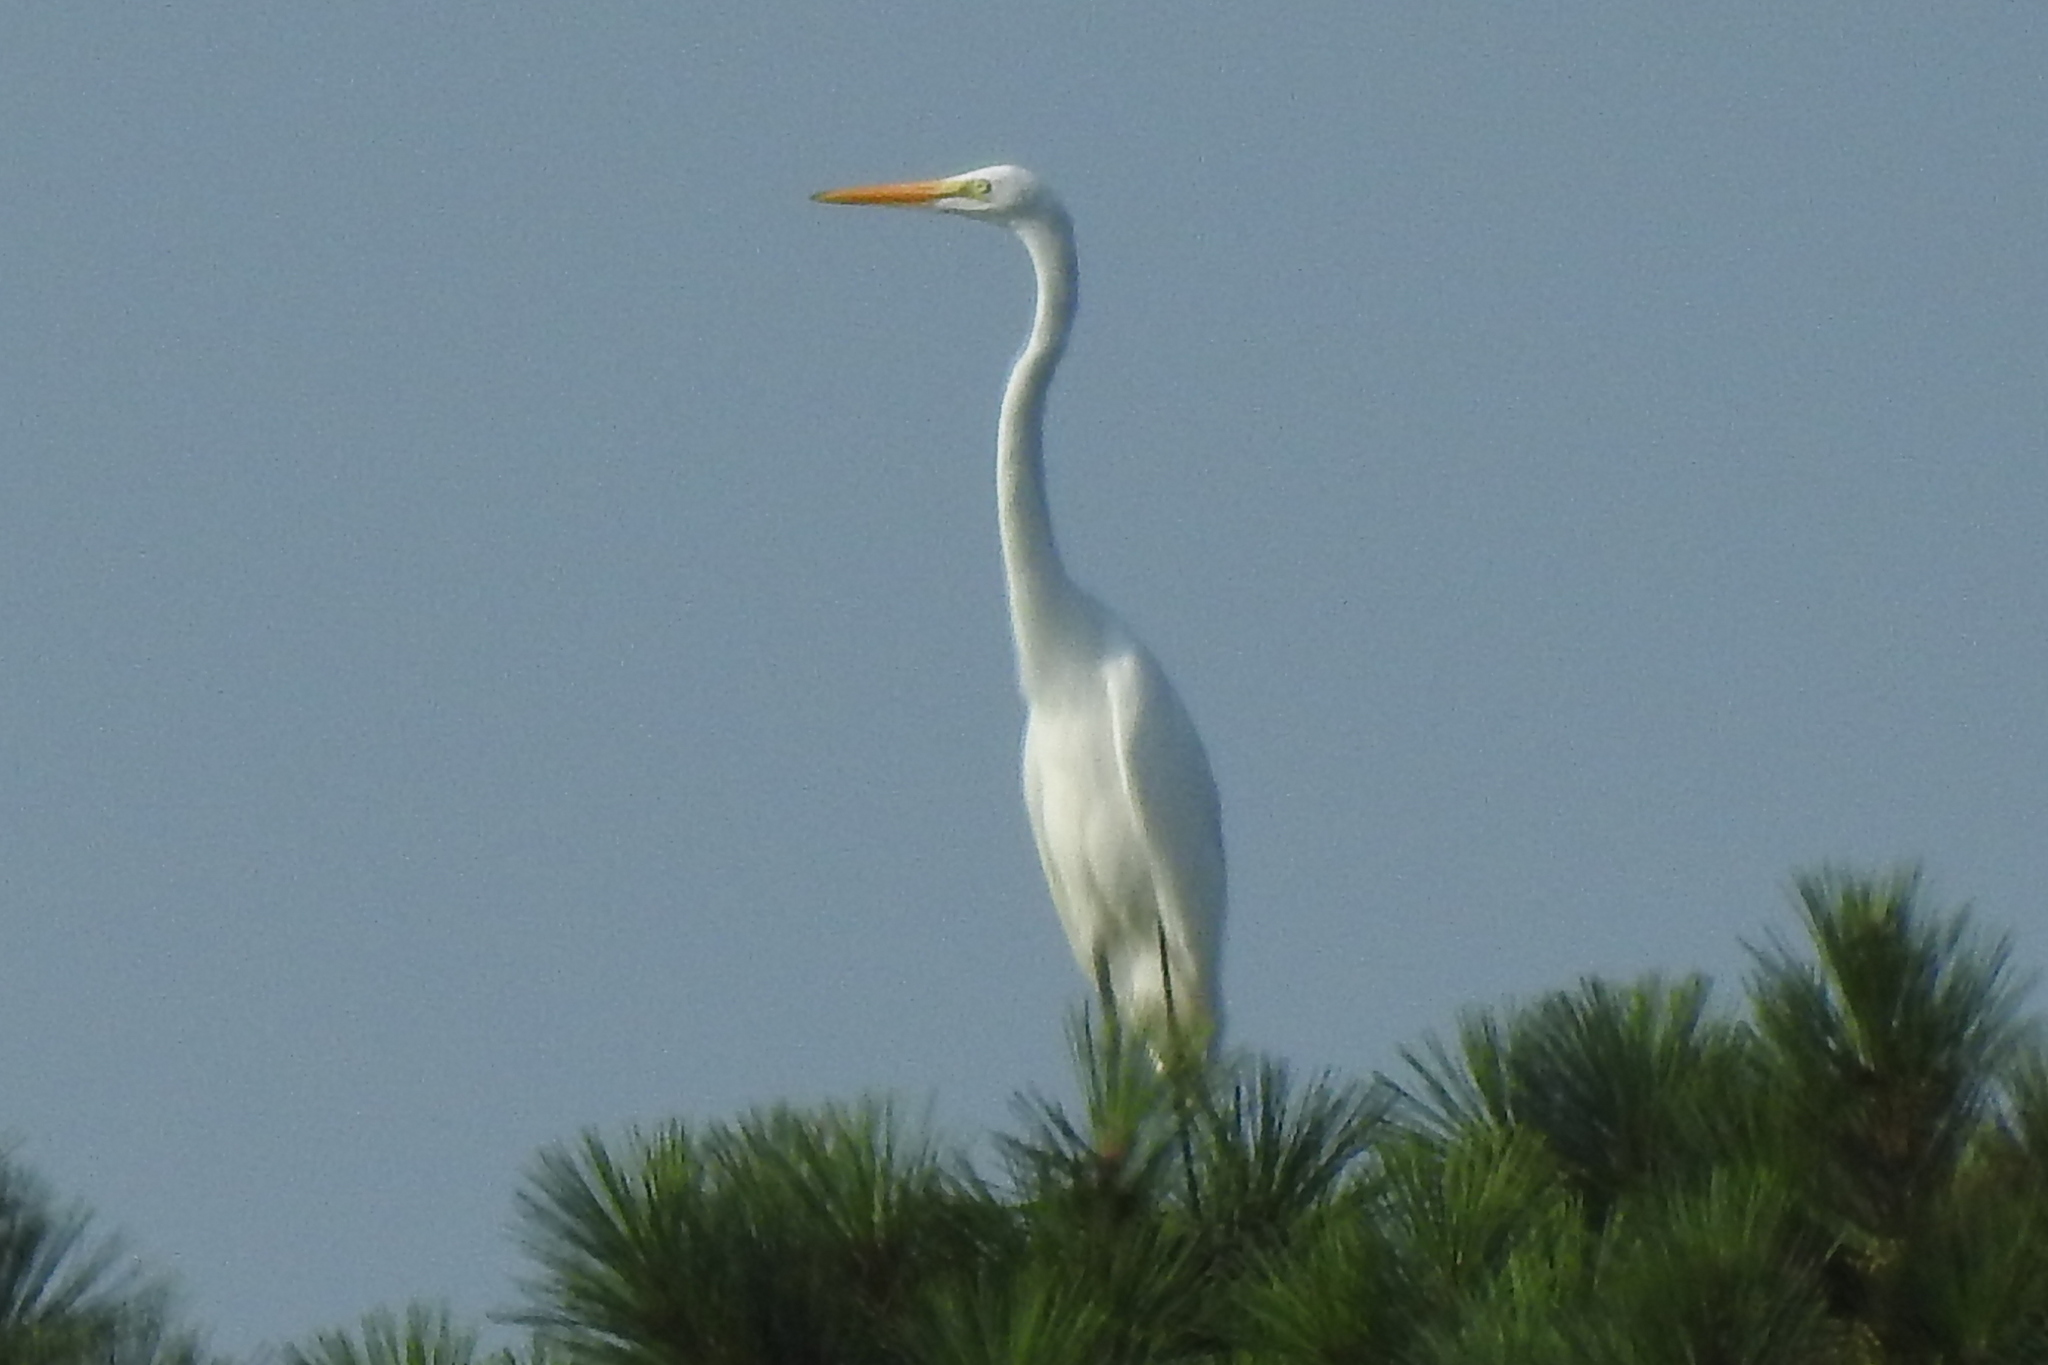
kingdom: Animalia
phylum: Chordata
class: Aves
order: Pelecaniformes
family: Ardeidae
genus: Ardea
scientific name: Ardea alba
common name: Great egret
